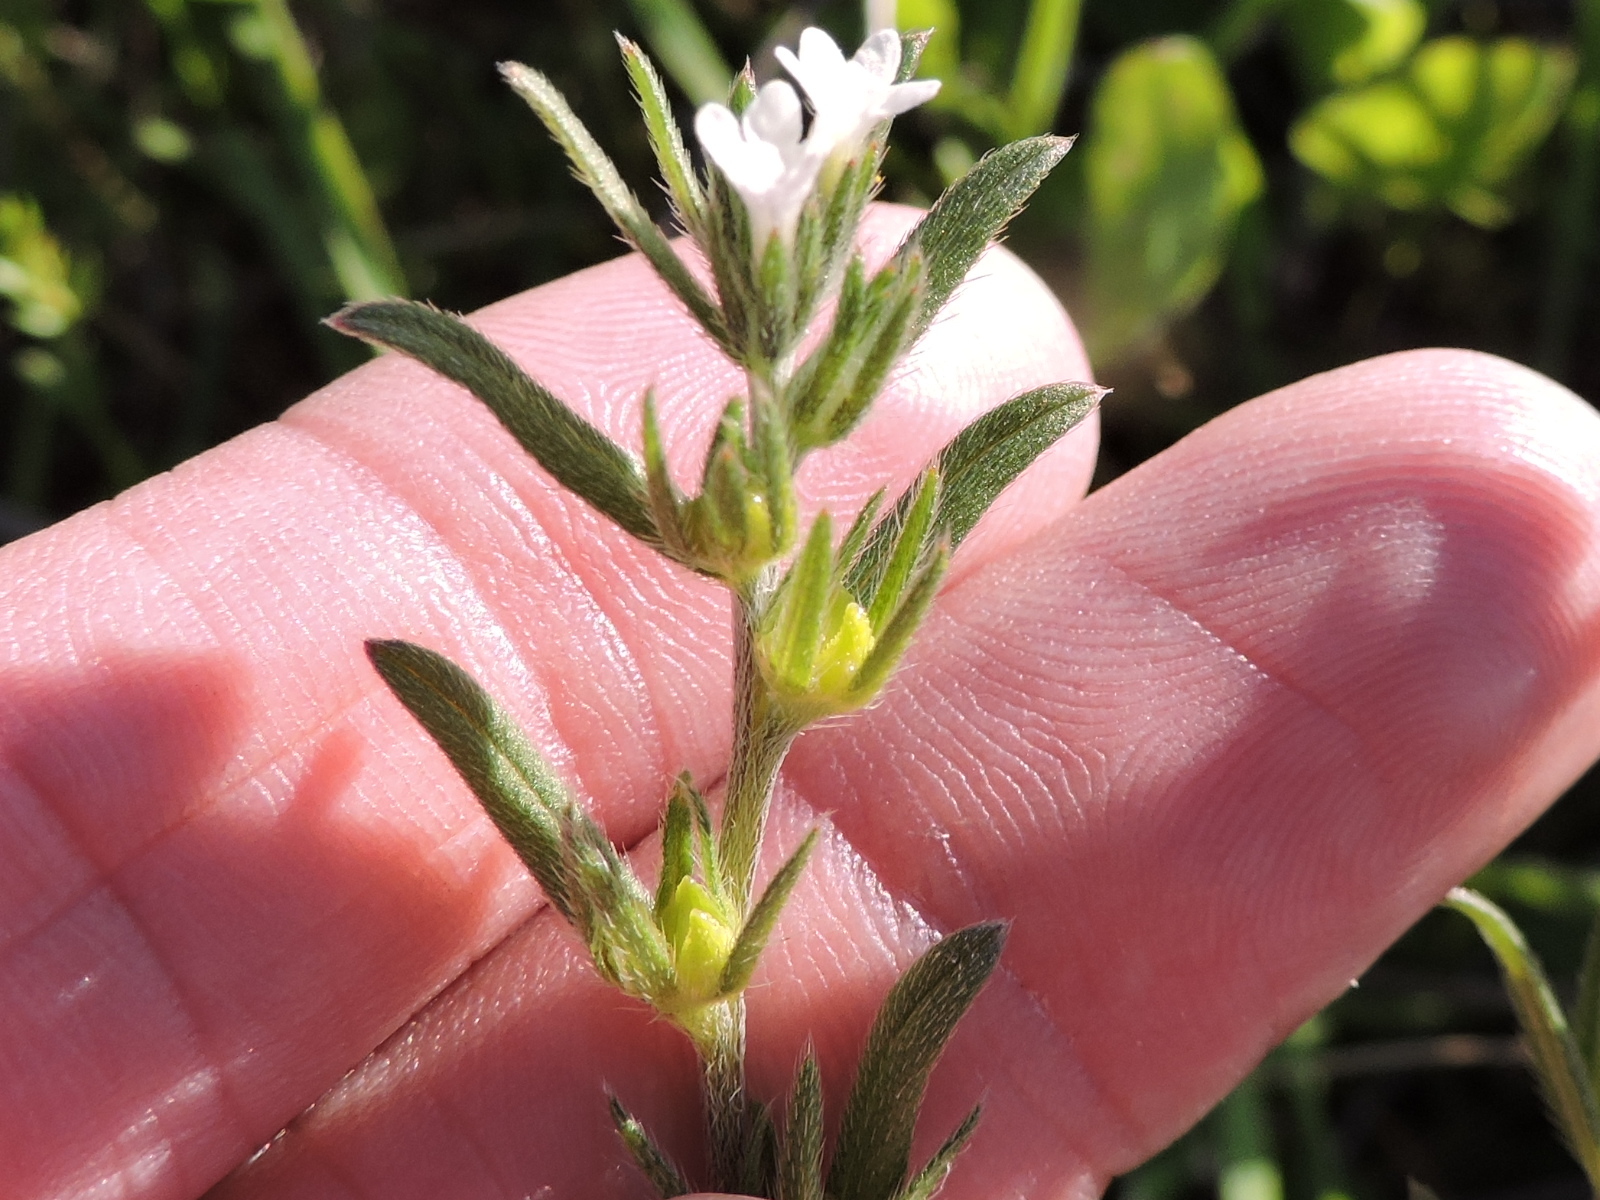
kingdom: Plantae
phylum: Tracheophyta
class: Magnoliopsida
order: Boraginales
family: Boraginaceae
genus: Buglossoides
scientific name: Buglossoides arvensis
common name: Corn gromwell
